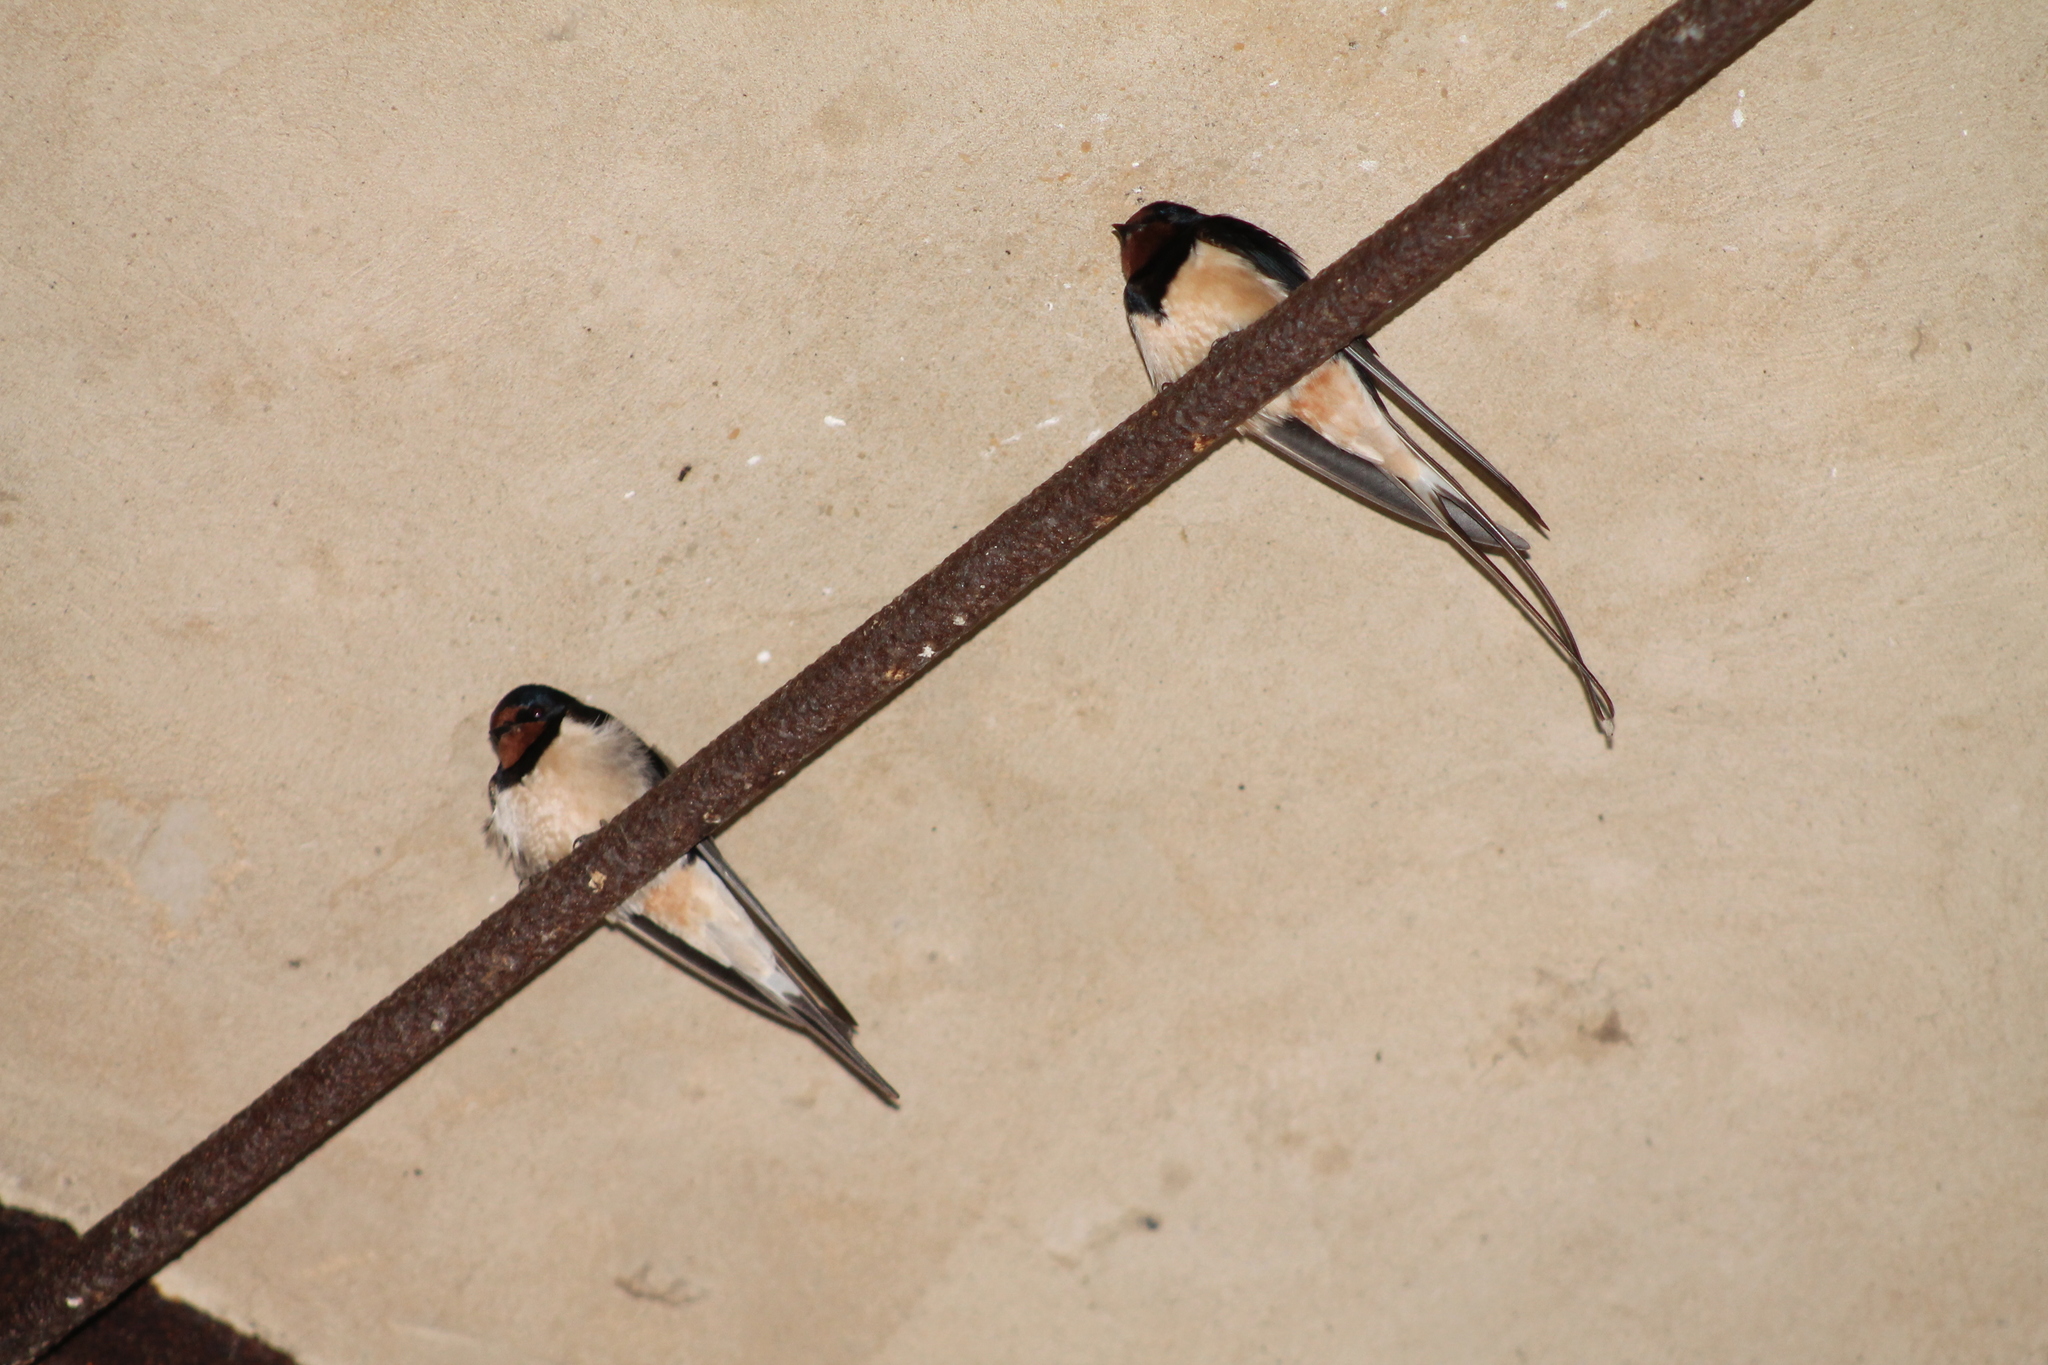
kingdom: Animalia
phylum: Chordata
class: Aves
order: Passeriformes
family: Hirundinidae
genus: Hirundo
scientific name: Hirundo rustica
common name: Barn swallow
